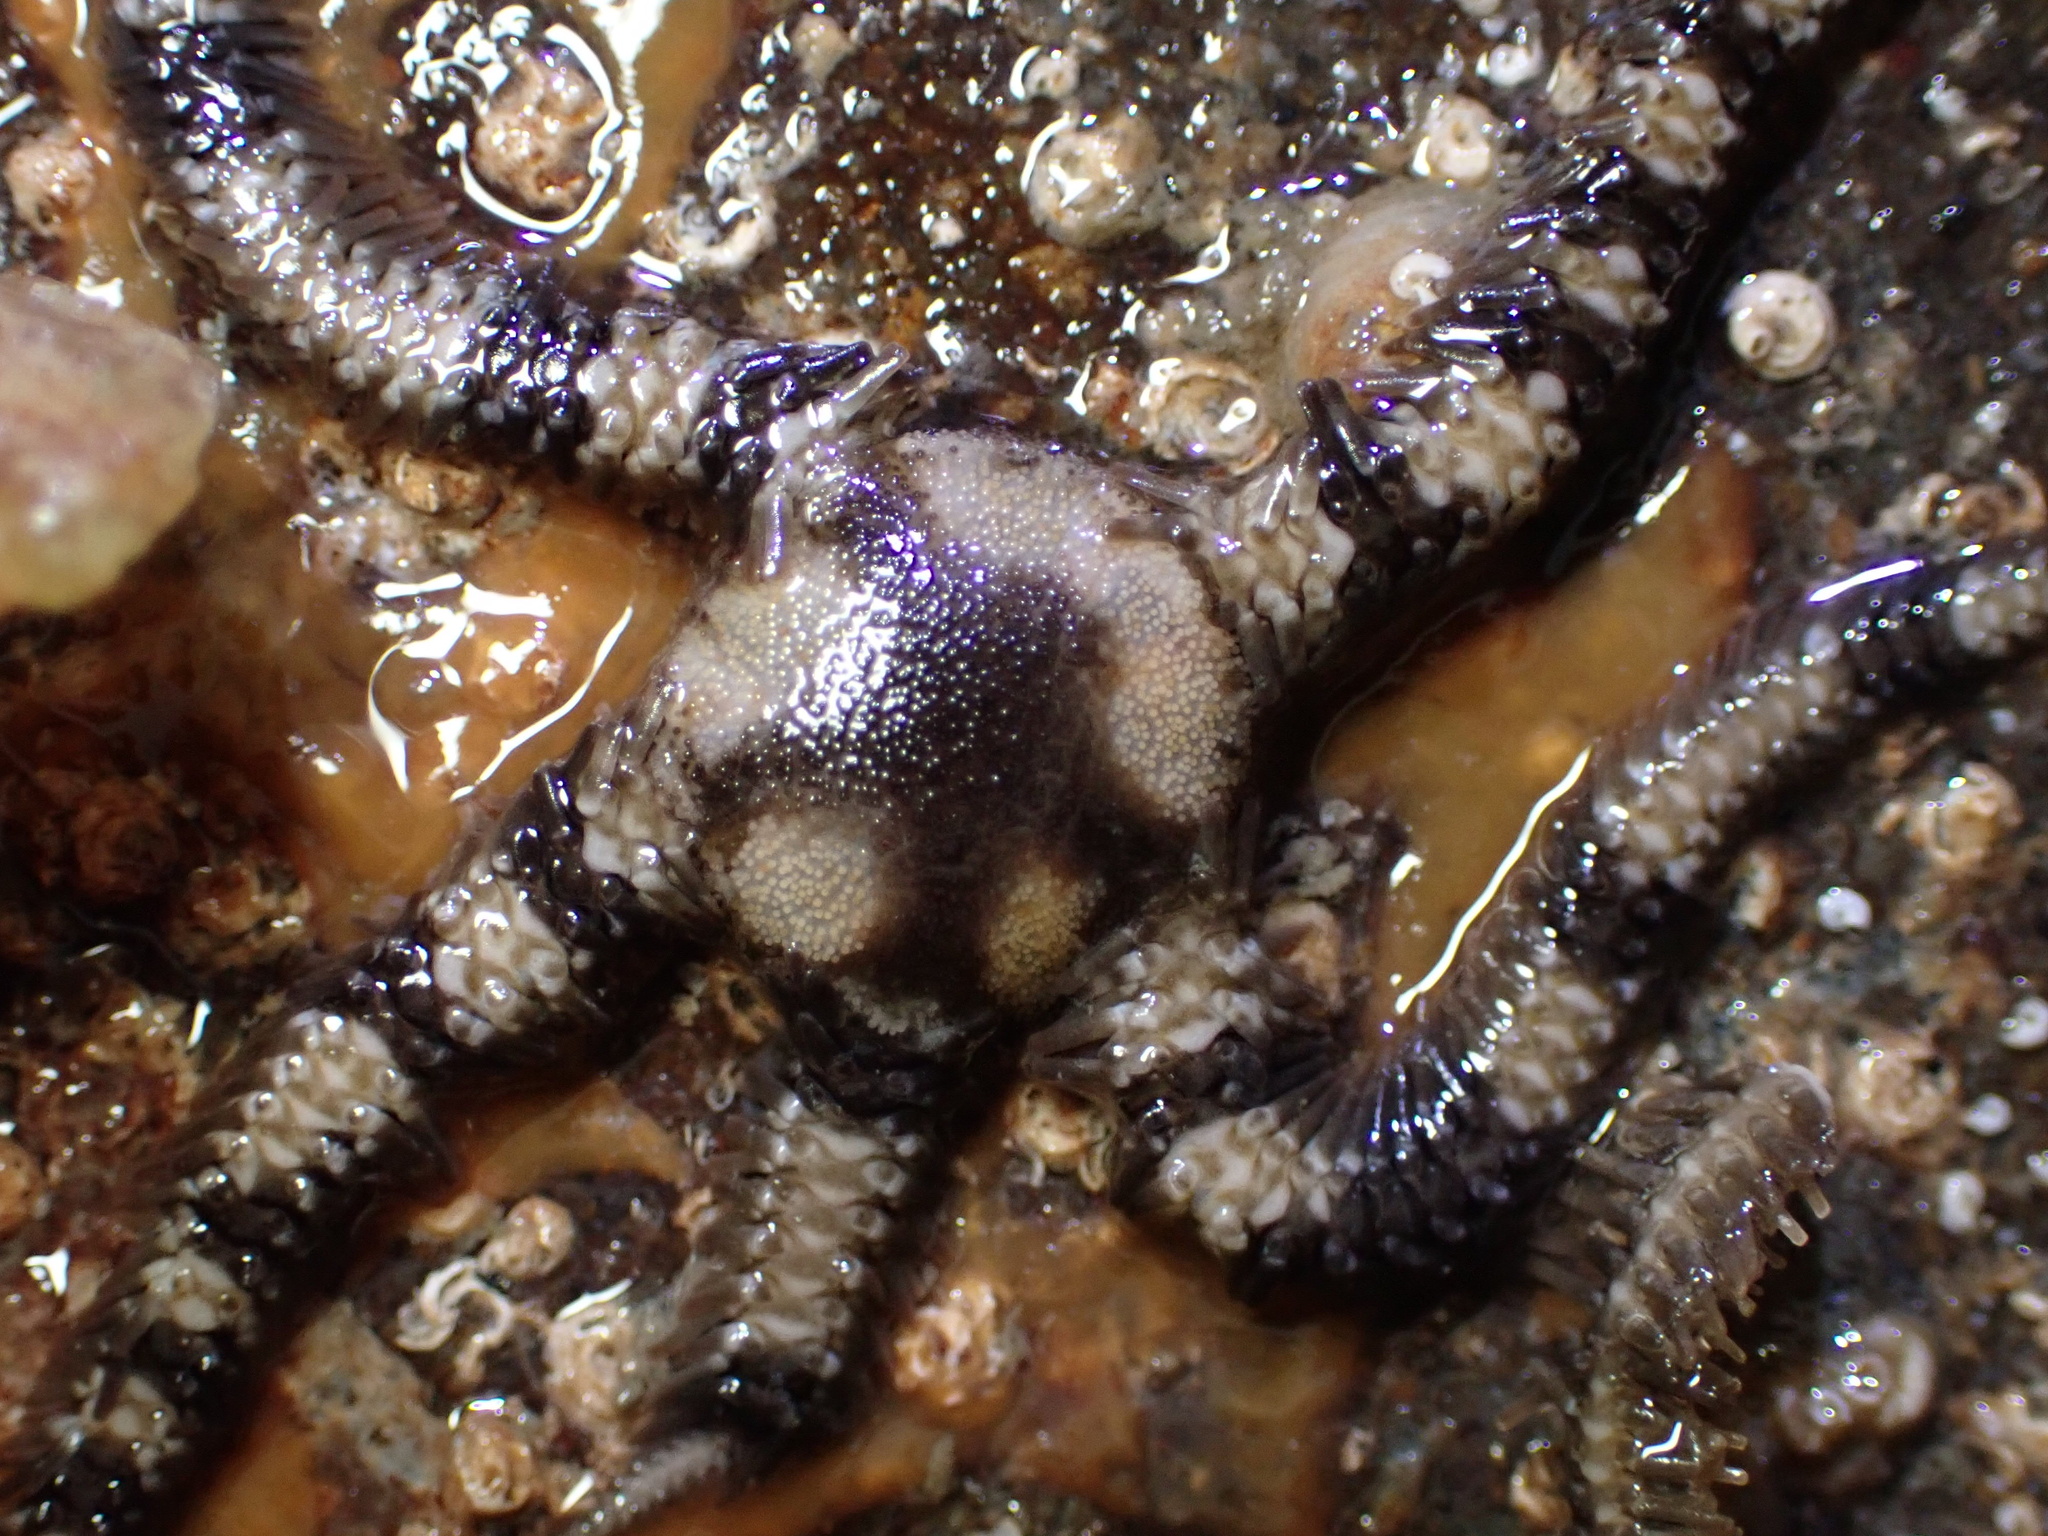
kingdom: Animalia
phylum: Echinodermata
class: Ophiuroidea
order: Ophiacanthida
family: Ophiopteridae
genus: Ophiopteris
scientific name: Ophiopteris papillosa
